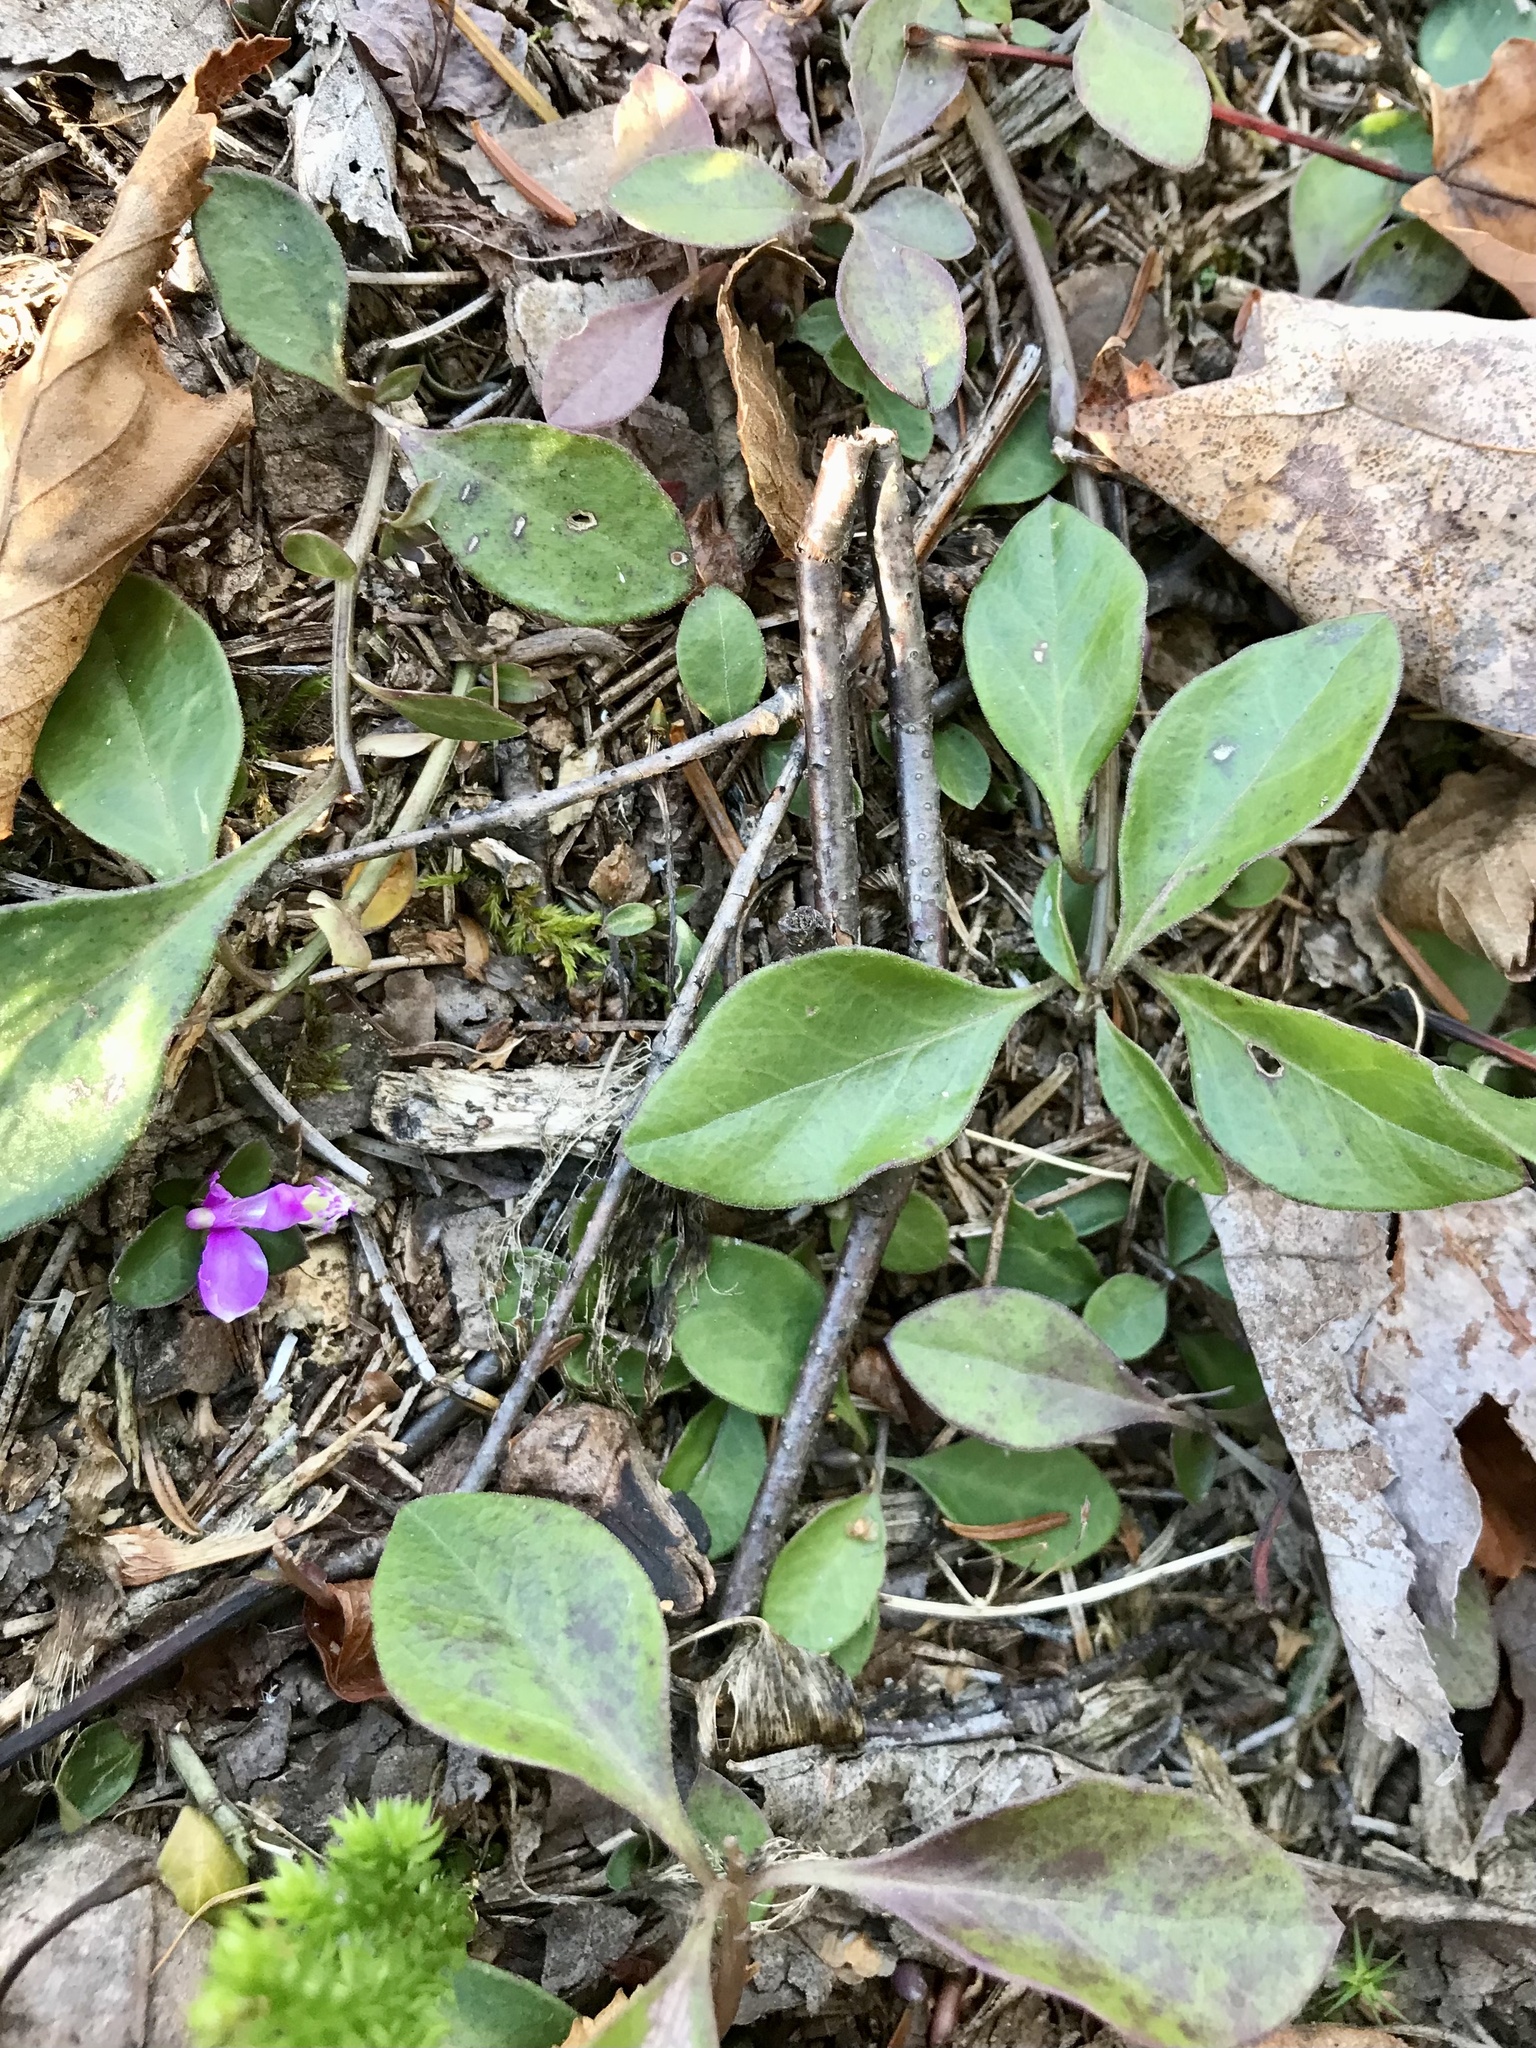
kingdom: Plantae
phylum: Tracheophyta
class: Magnoliopsida
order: Fabales
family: Polygalaceae
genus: Polygaloides
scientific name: Polygaloides paucifolia
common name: Bird-on-the-wing
